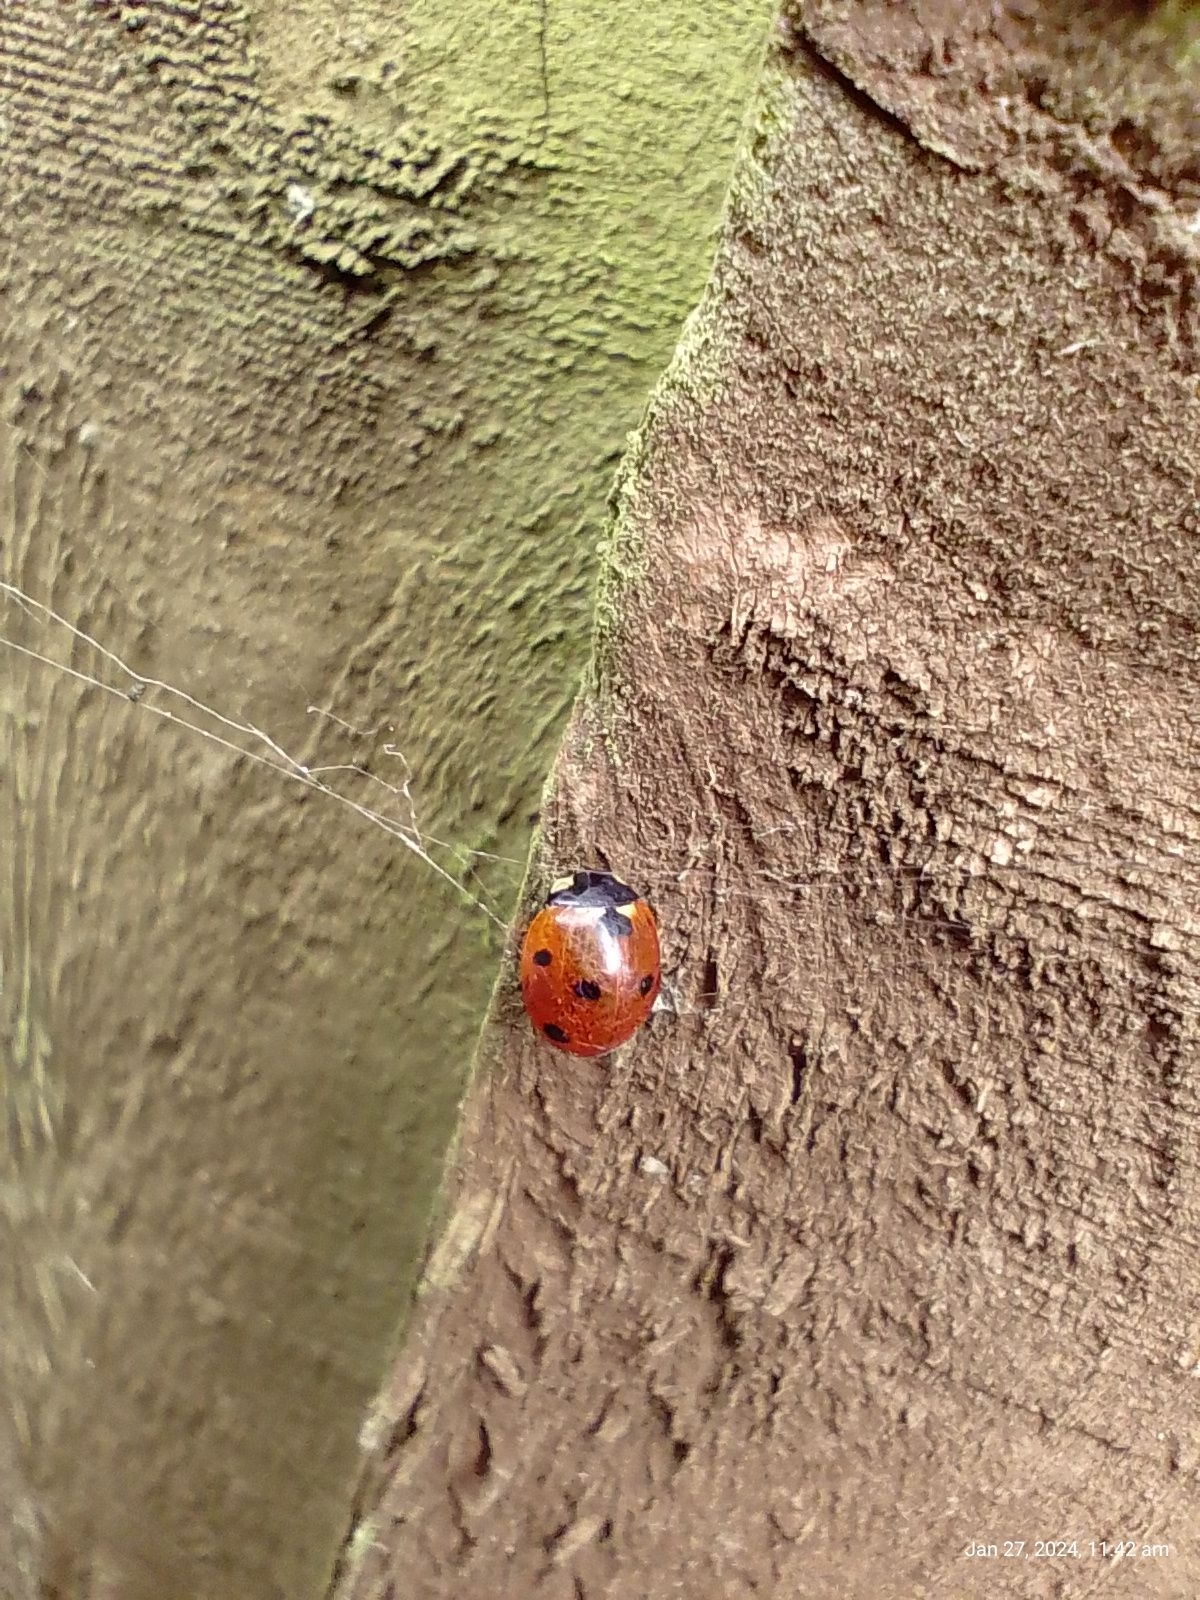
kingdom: Animalia
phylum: Arthropoda
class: Insecta
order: Coleoptera
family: Coccinellidae
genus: Coccinella
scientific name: Coccinella septempunctata
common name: Sevenspotted lady beetle
